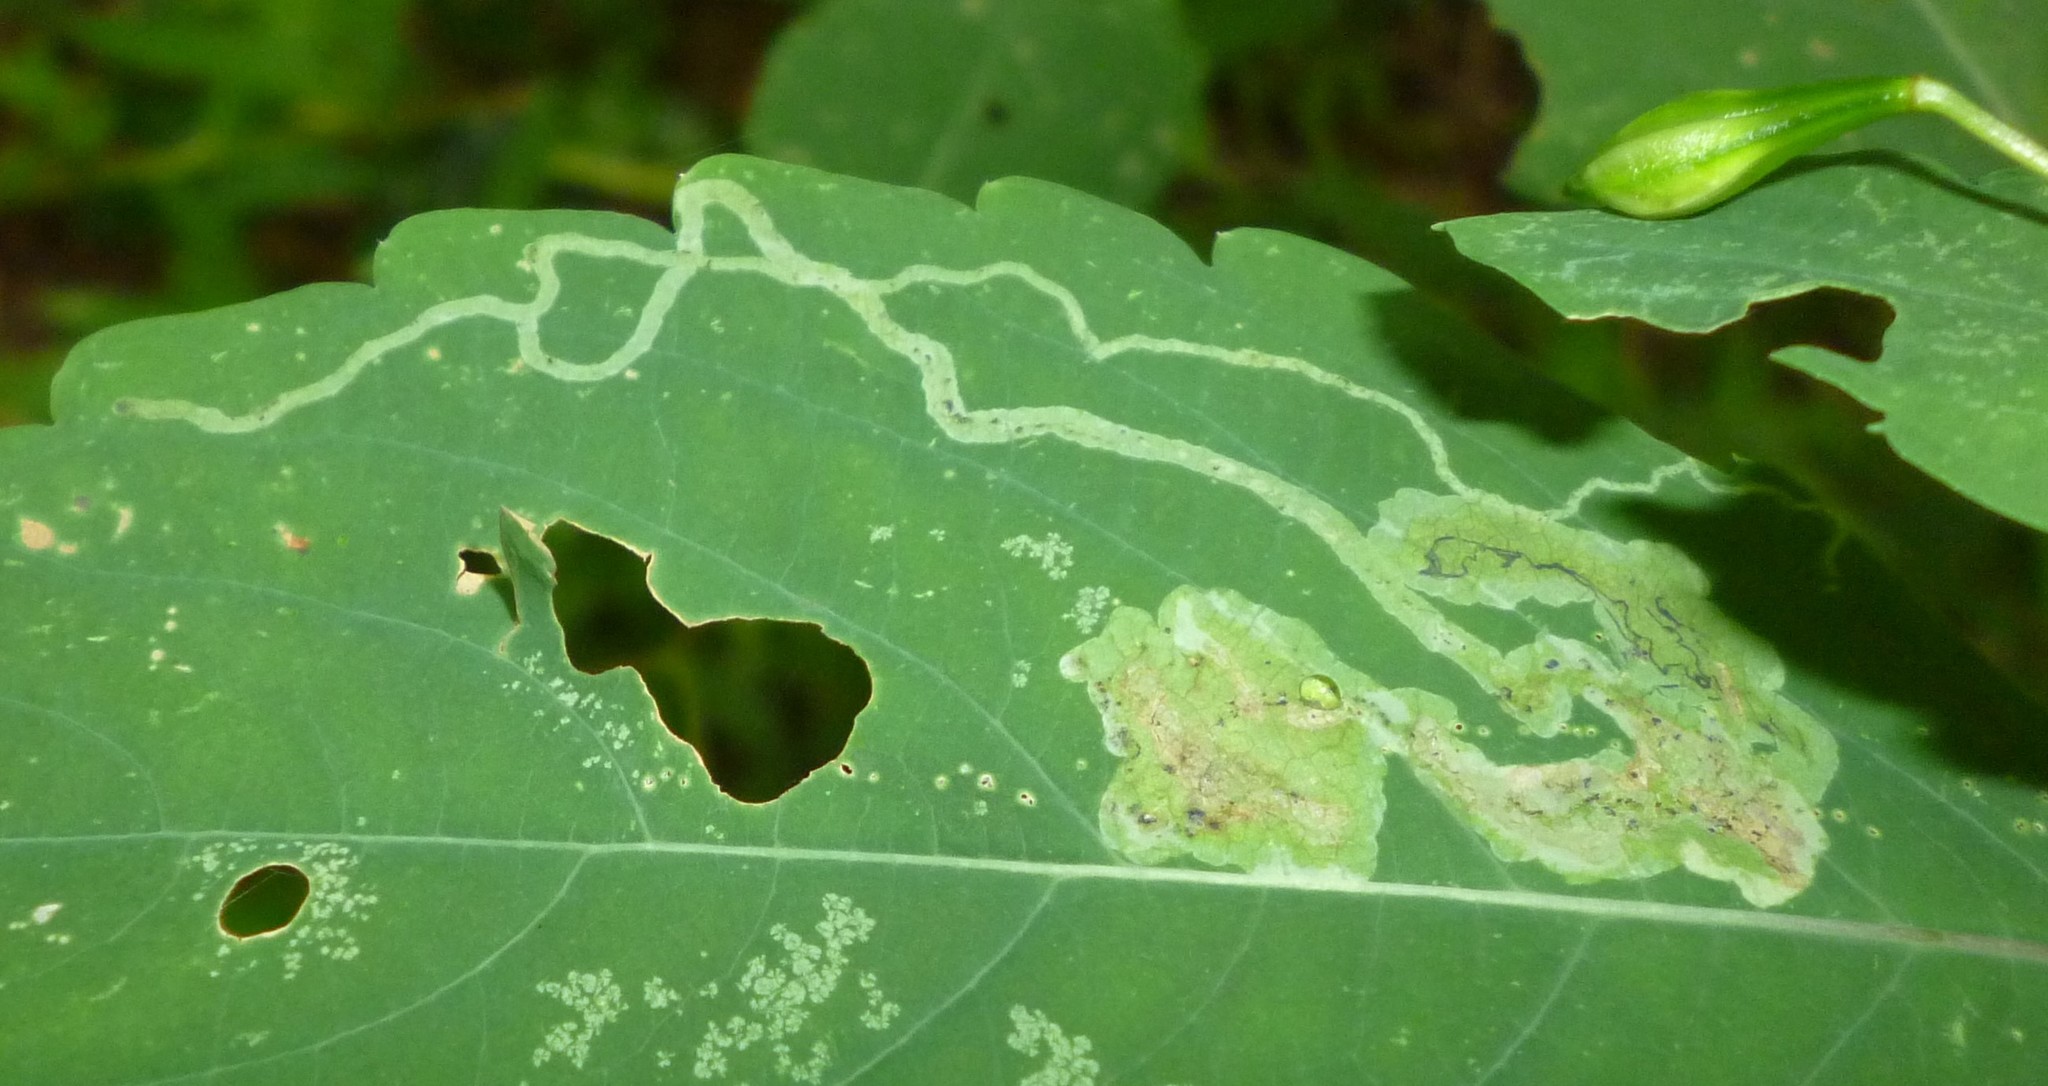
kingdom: Animalia
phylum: Arthropoda
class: Insecta
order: Diptera
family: Agromyzidae
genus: Phytoliriomyza
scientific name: Phytoliriomyza melampyga
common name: Jewelweed leaf-miner fly
